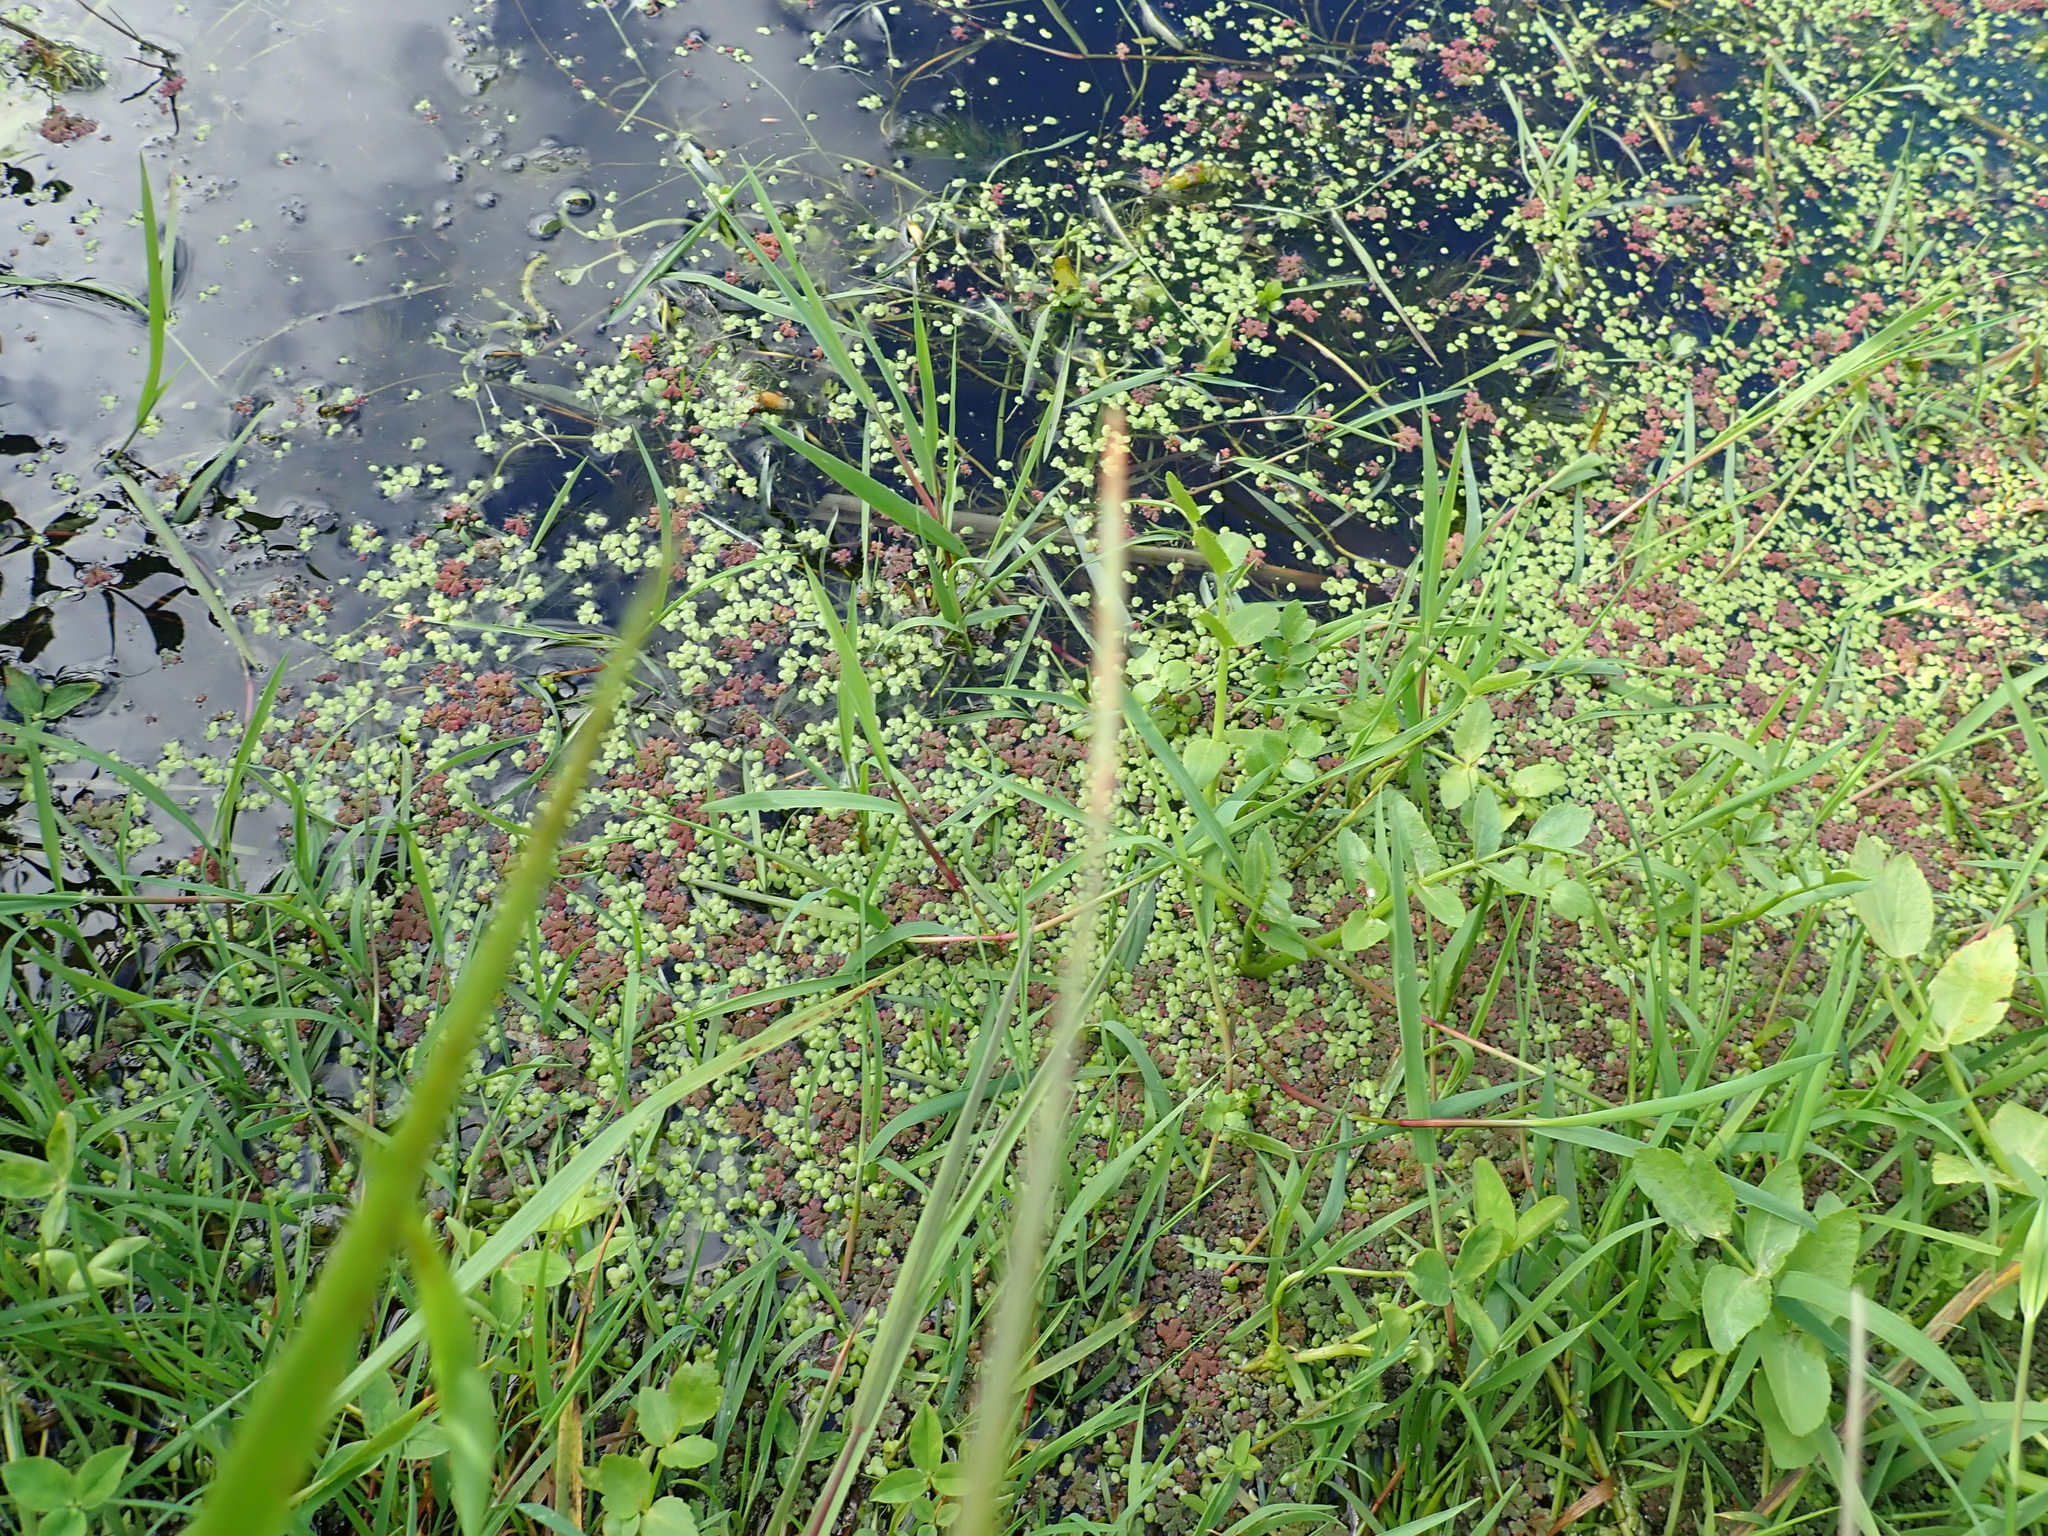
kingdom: Plantae
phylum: Tracheophyta
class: Polypodiopsida
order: Salviniales
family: Salviniaceae
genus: Azolla
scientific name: Azolla rubra
